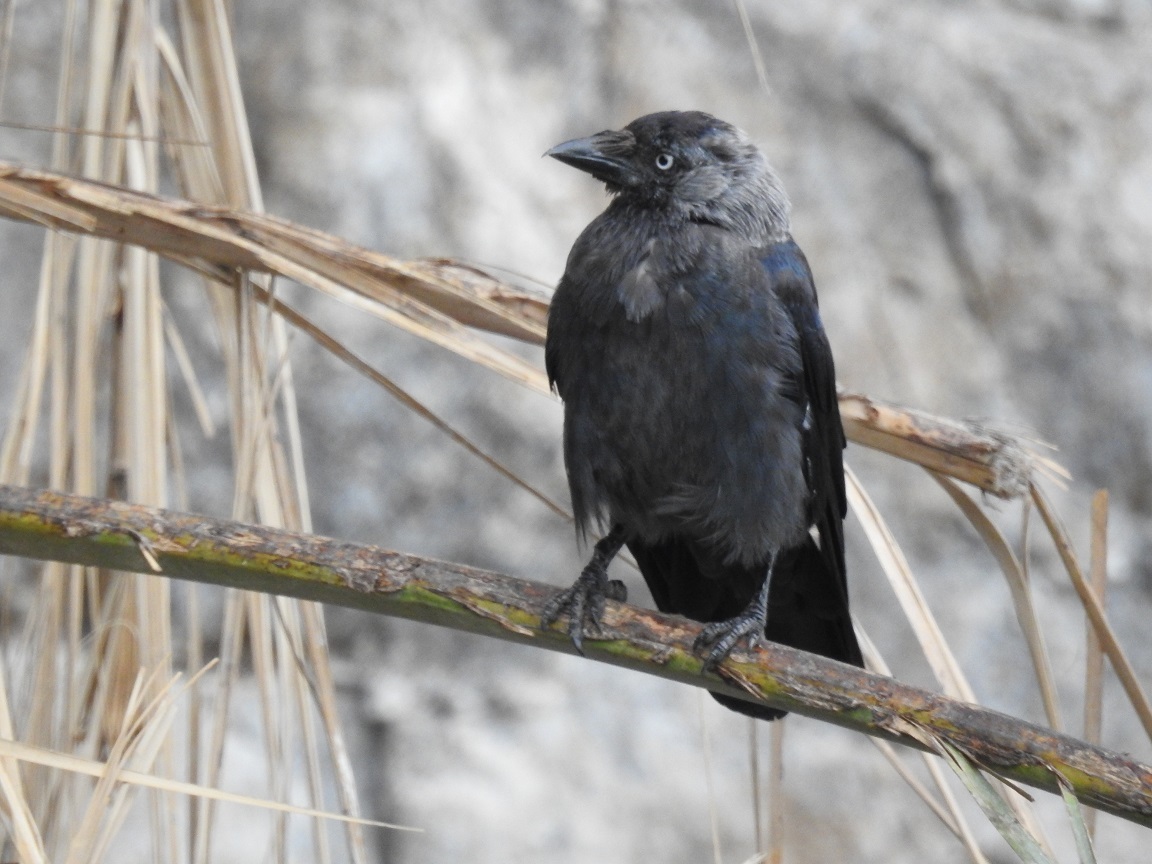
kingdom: Animalia
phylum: Chordata
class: Aves
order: Passeriformes
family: Corvidae
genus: Coloeus
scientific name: Coloeus monedula
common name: Western jackdaw
